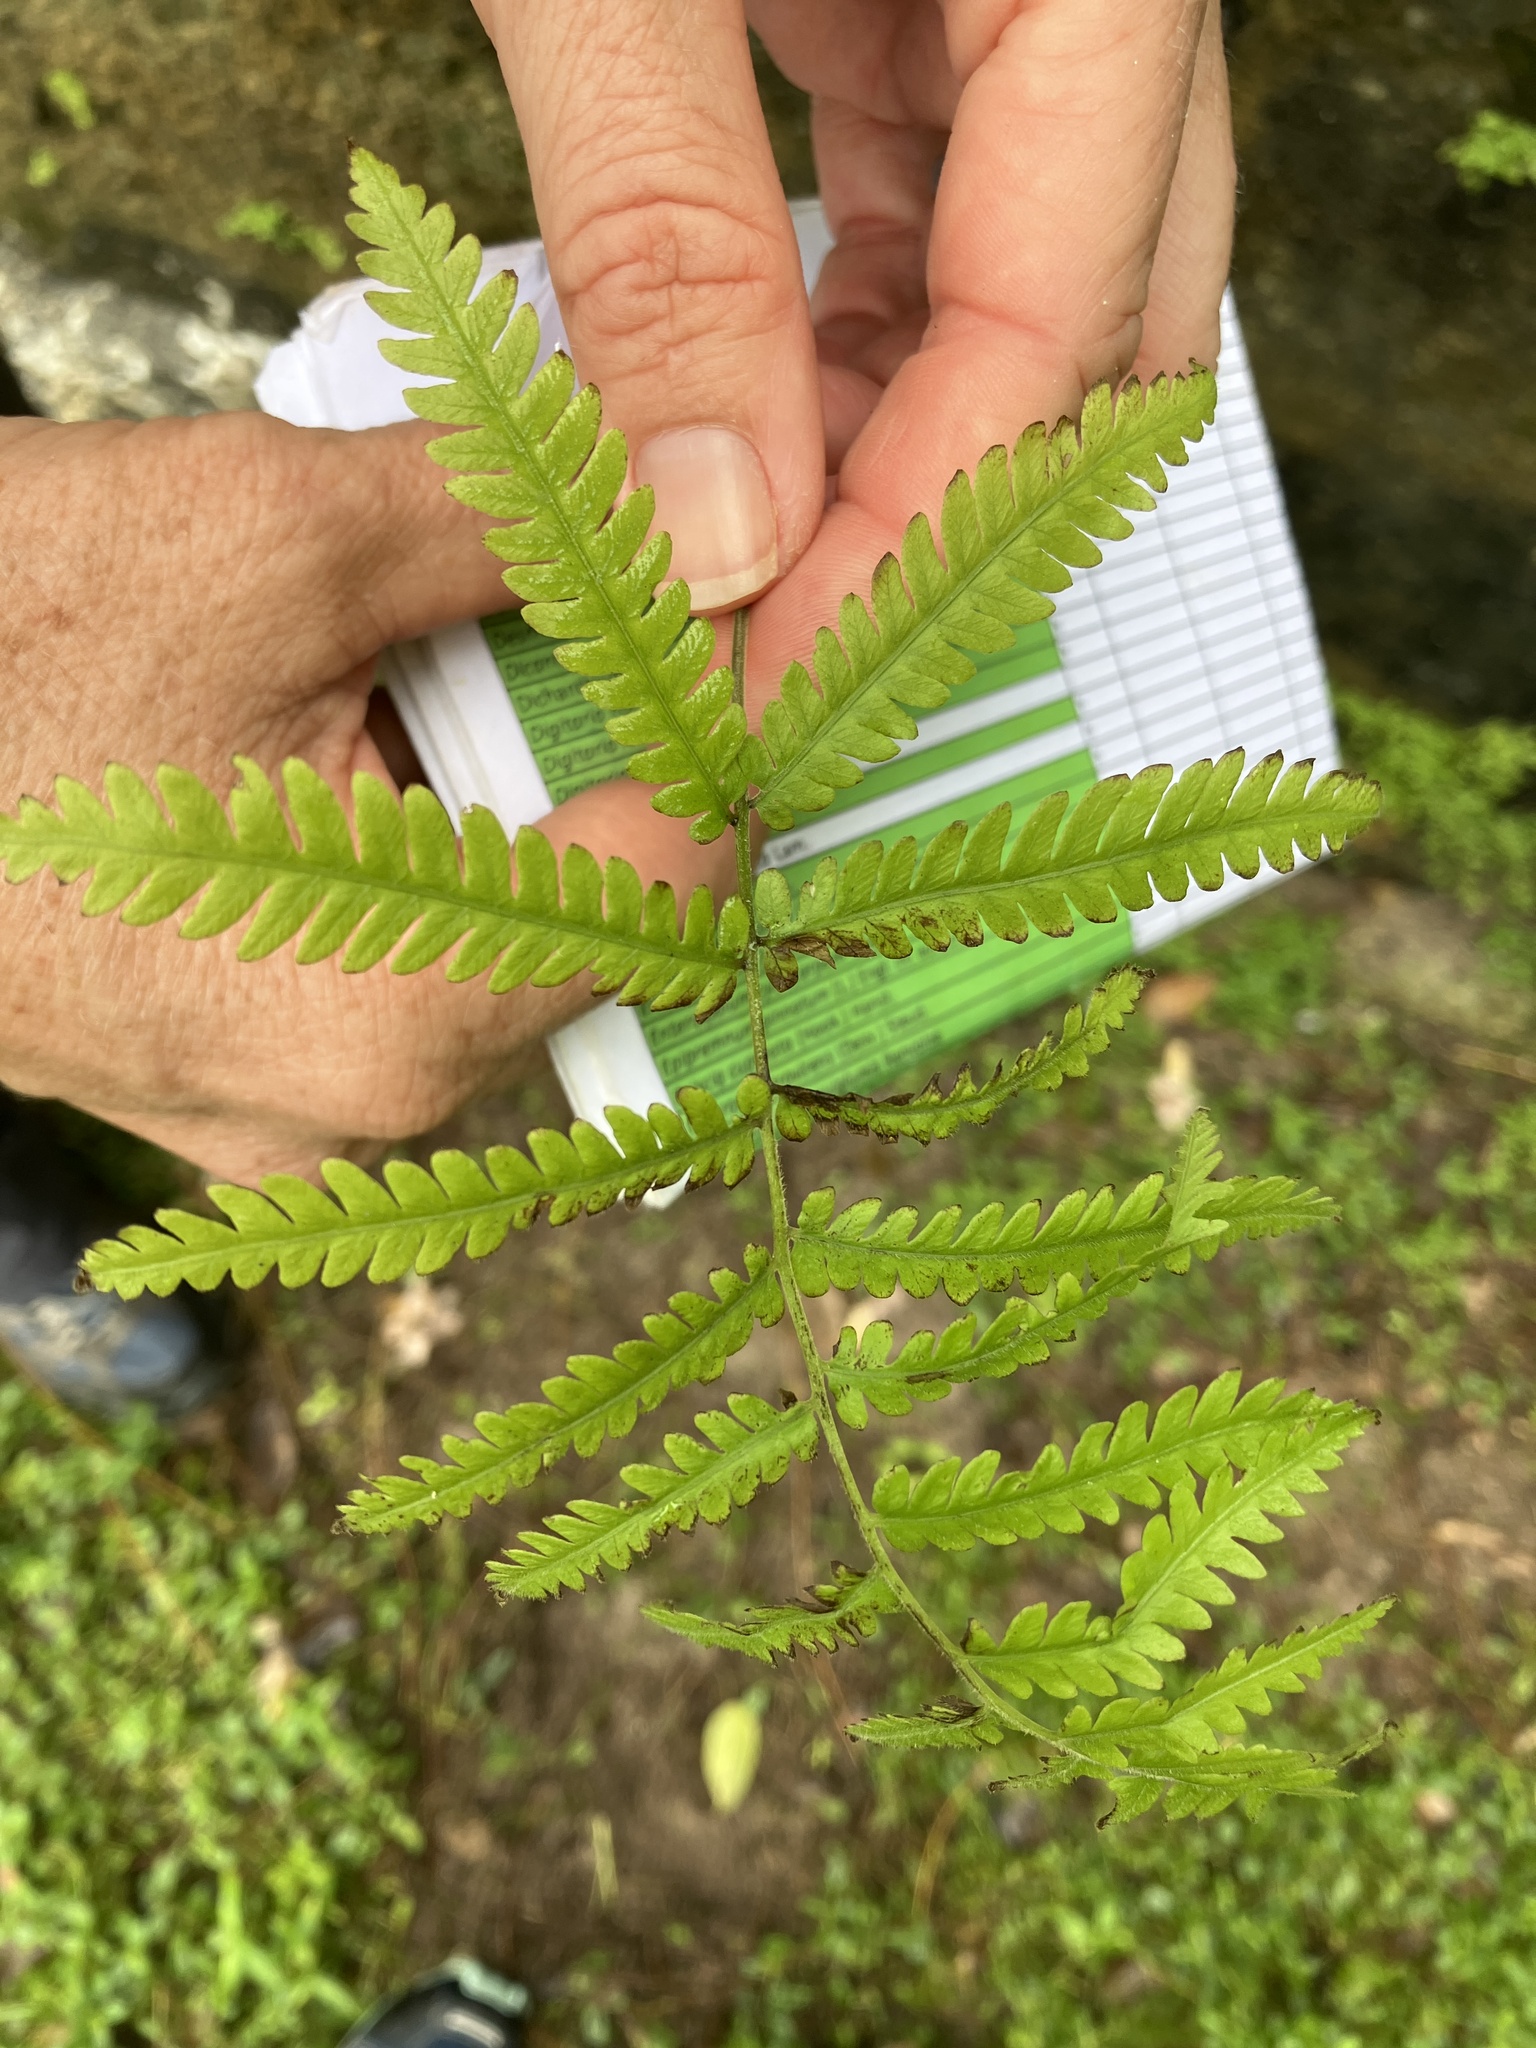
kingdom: Plantae
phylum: Tracheophyta
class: Polypodiopsida
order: Polypodiales
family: Thelypteridaceae
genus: Christella
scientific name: Christella parasitica
